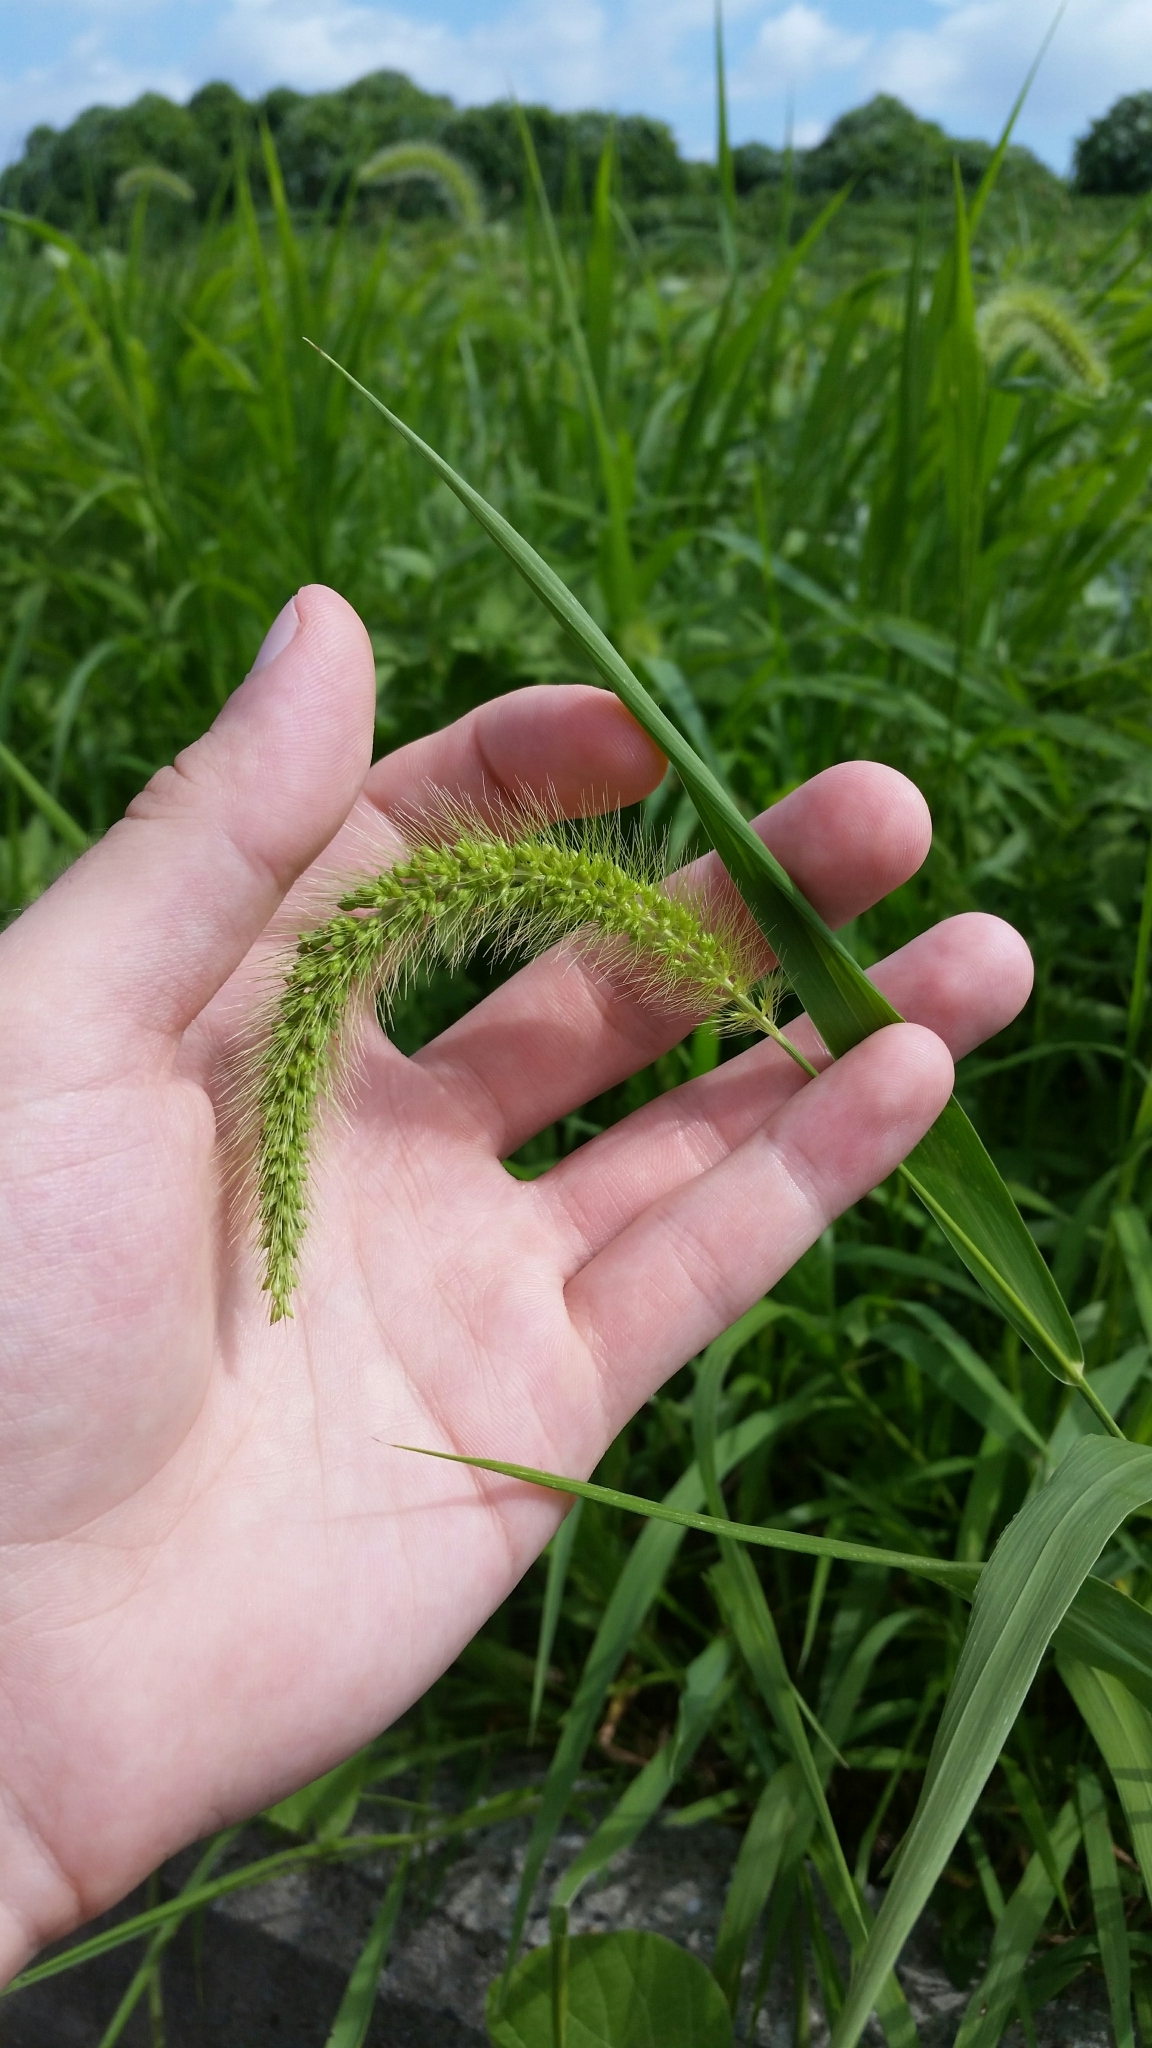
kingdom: Plantae
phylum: Tracheophyta
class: Liliopsida
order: Poales
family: Poaceae
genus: Setaria
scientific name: Setaria faberi
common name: Nodding bristle-grass
